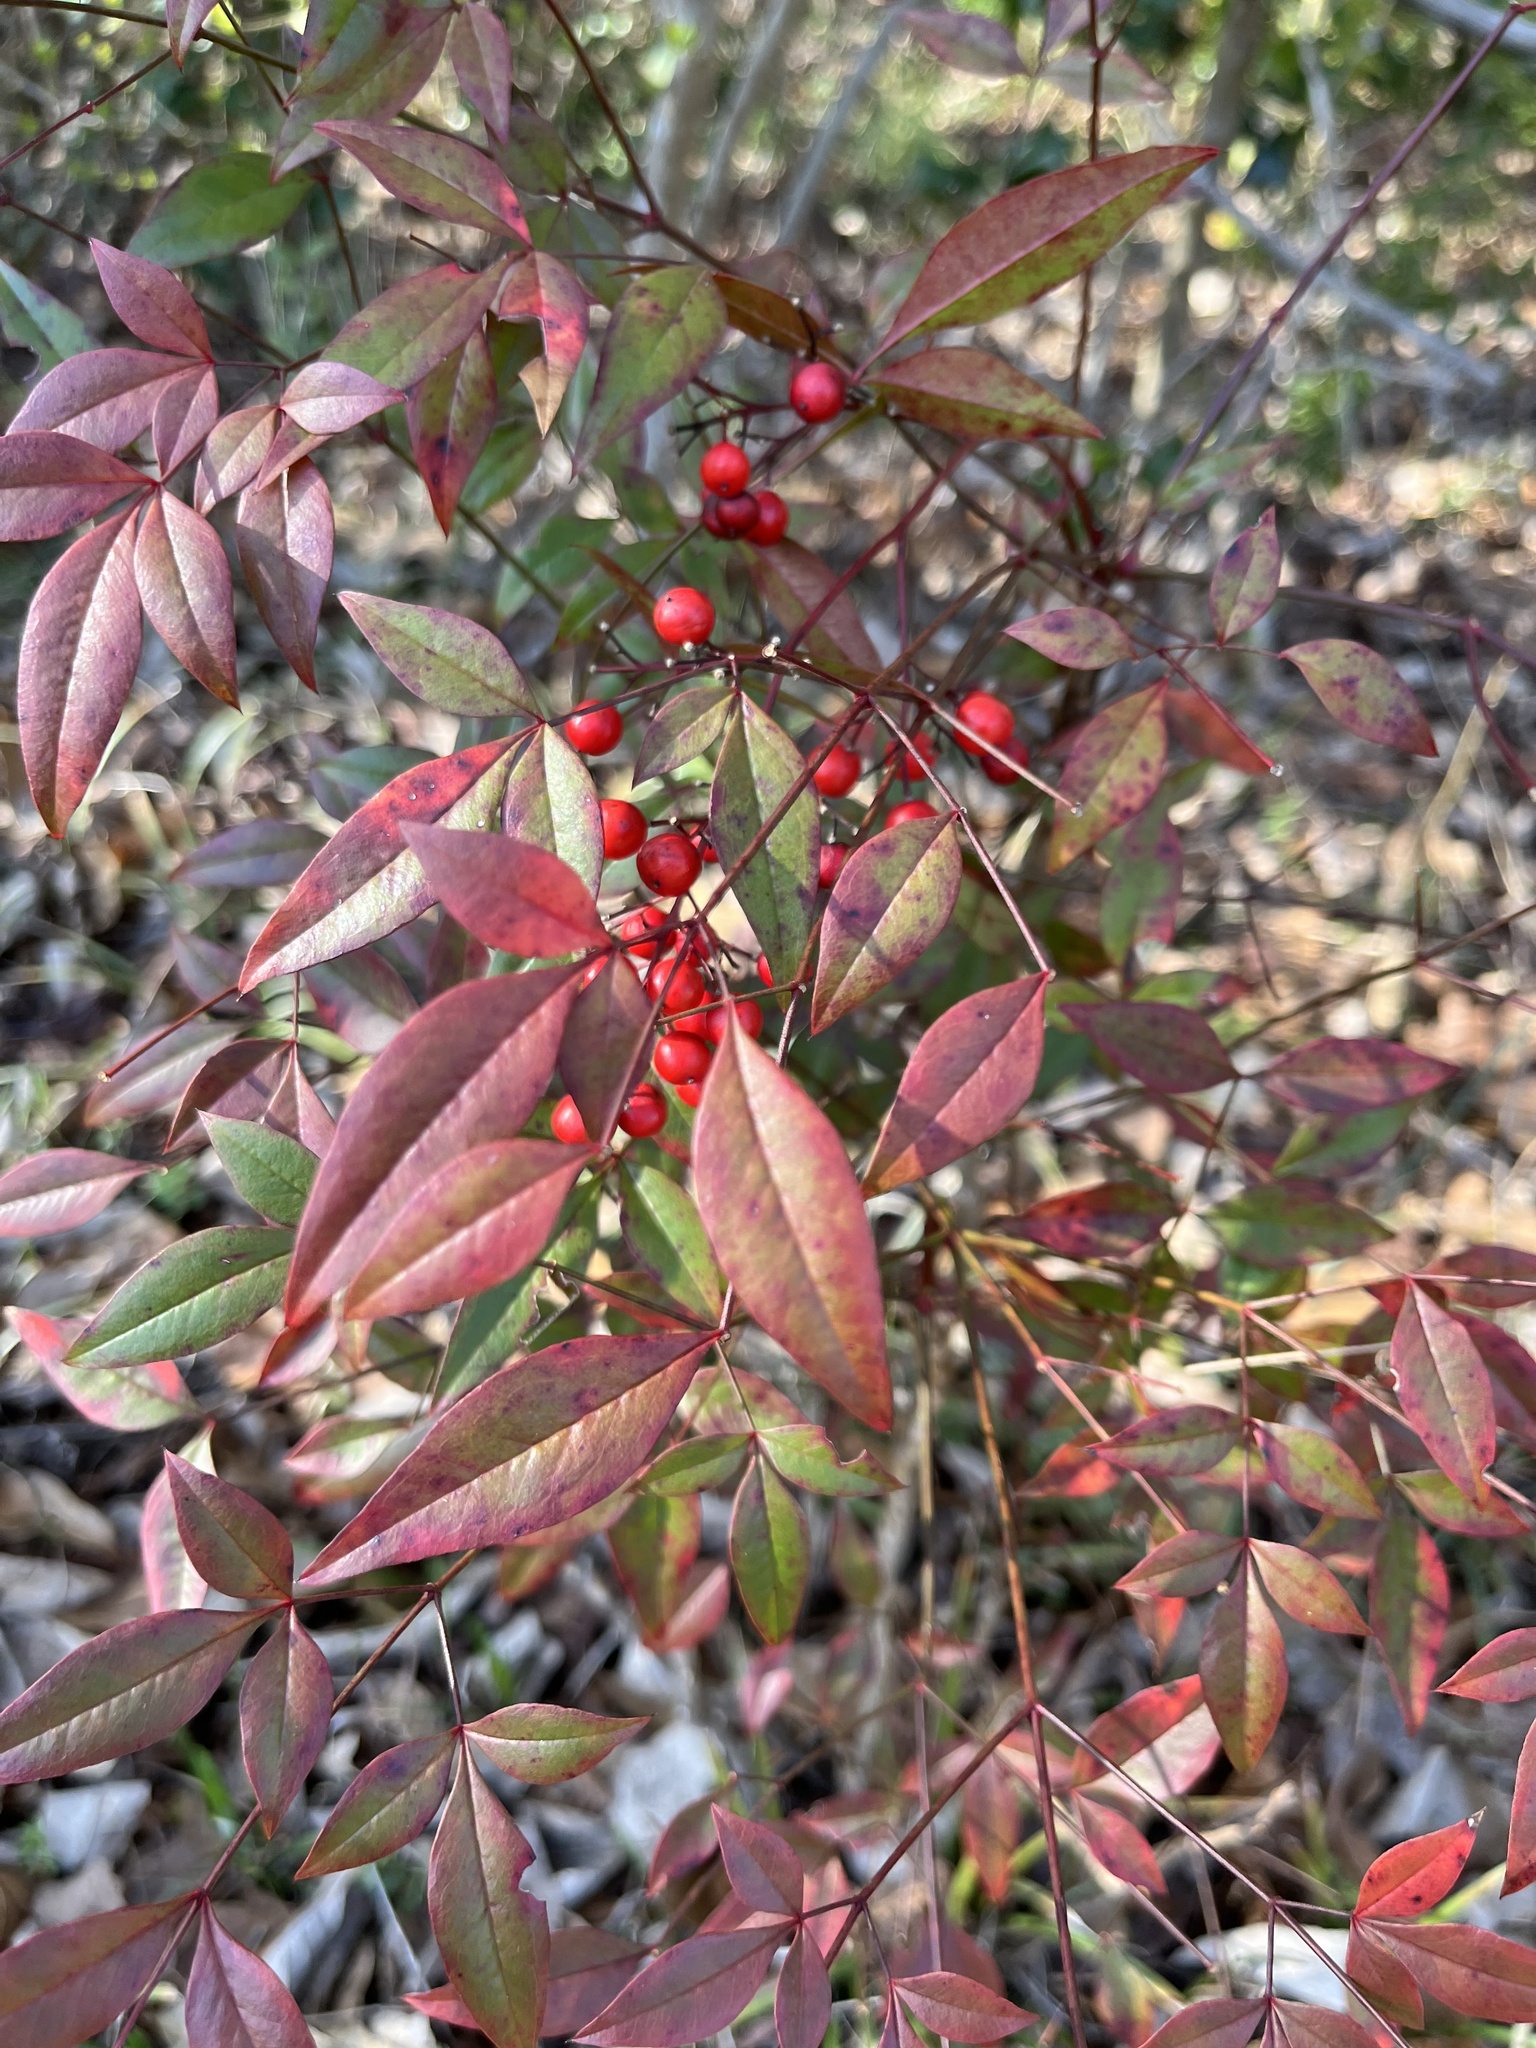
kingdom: Plantae
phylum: Tracheophyta
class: Magnoliopsida
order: Ranunculales
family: Berberidaceae
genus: Nandina
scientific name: Nandina domestica
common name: Sacred bamboo
